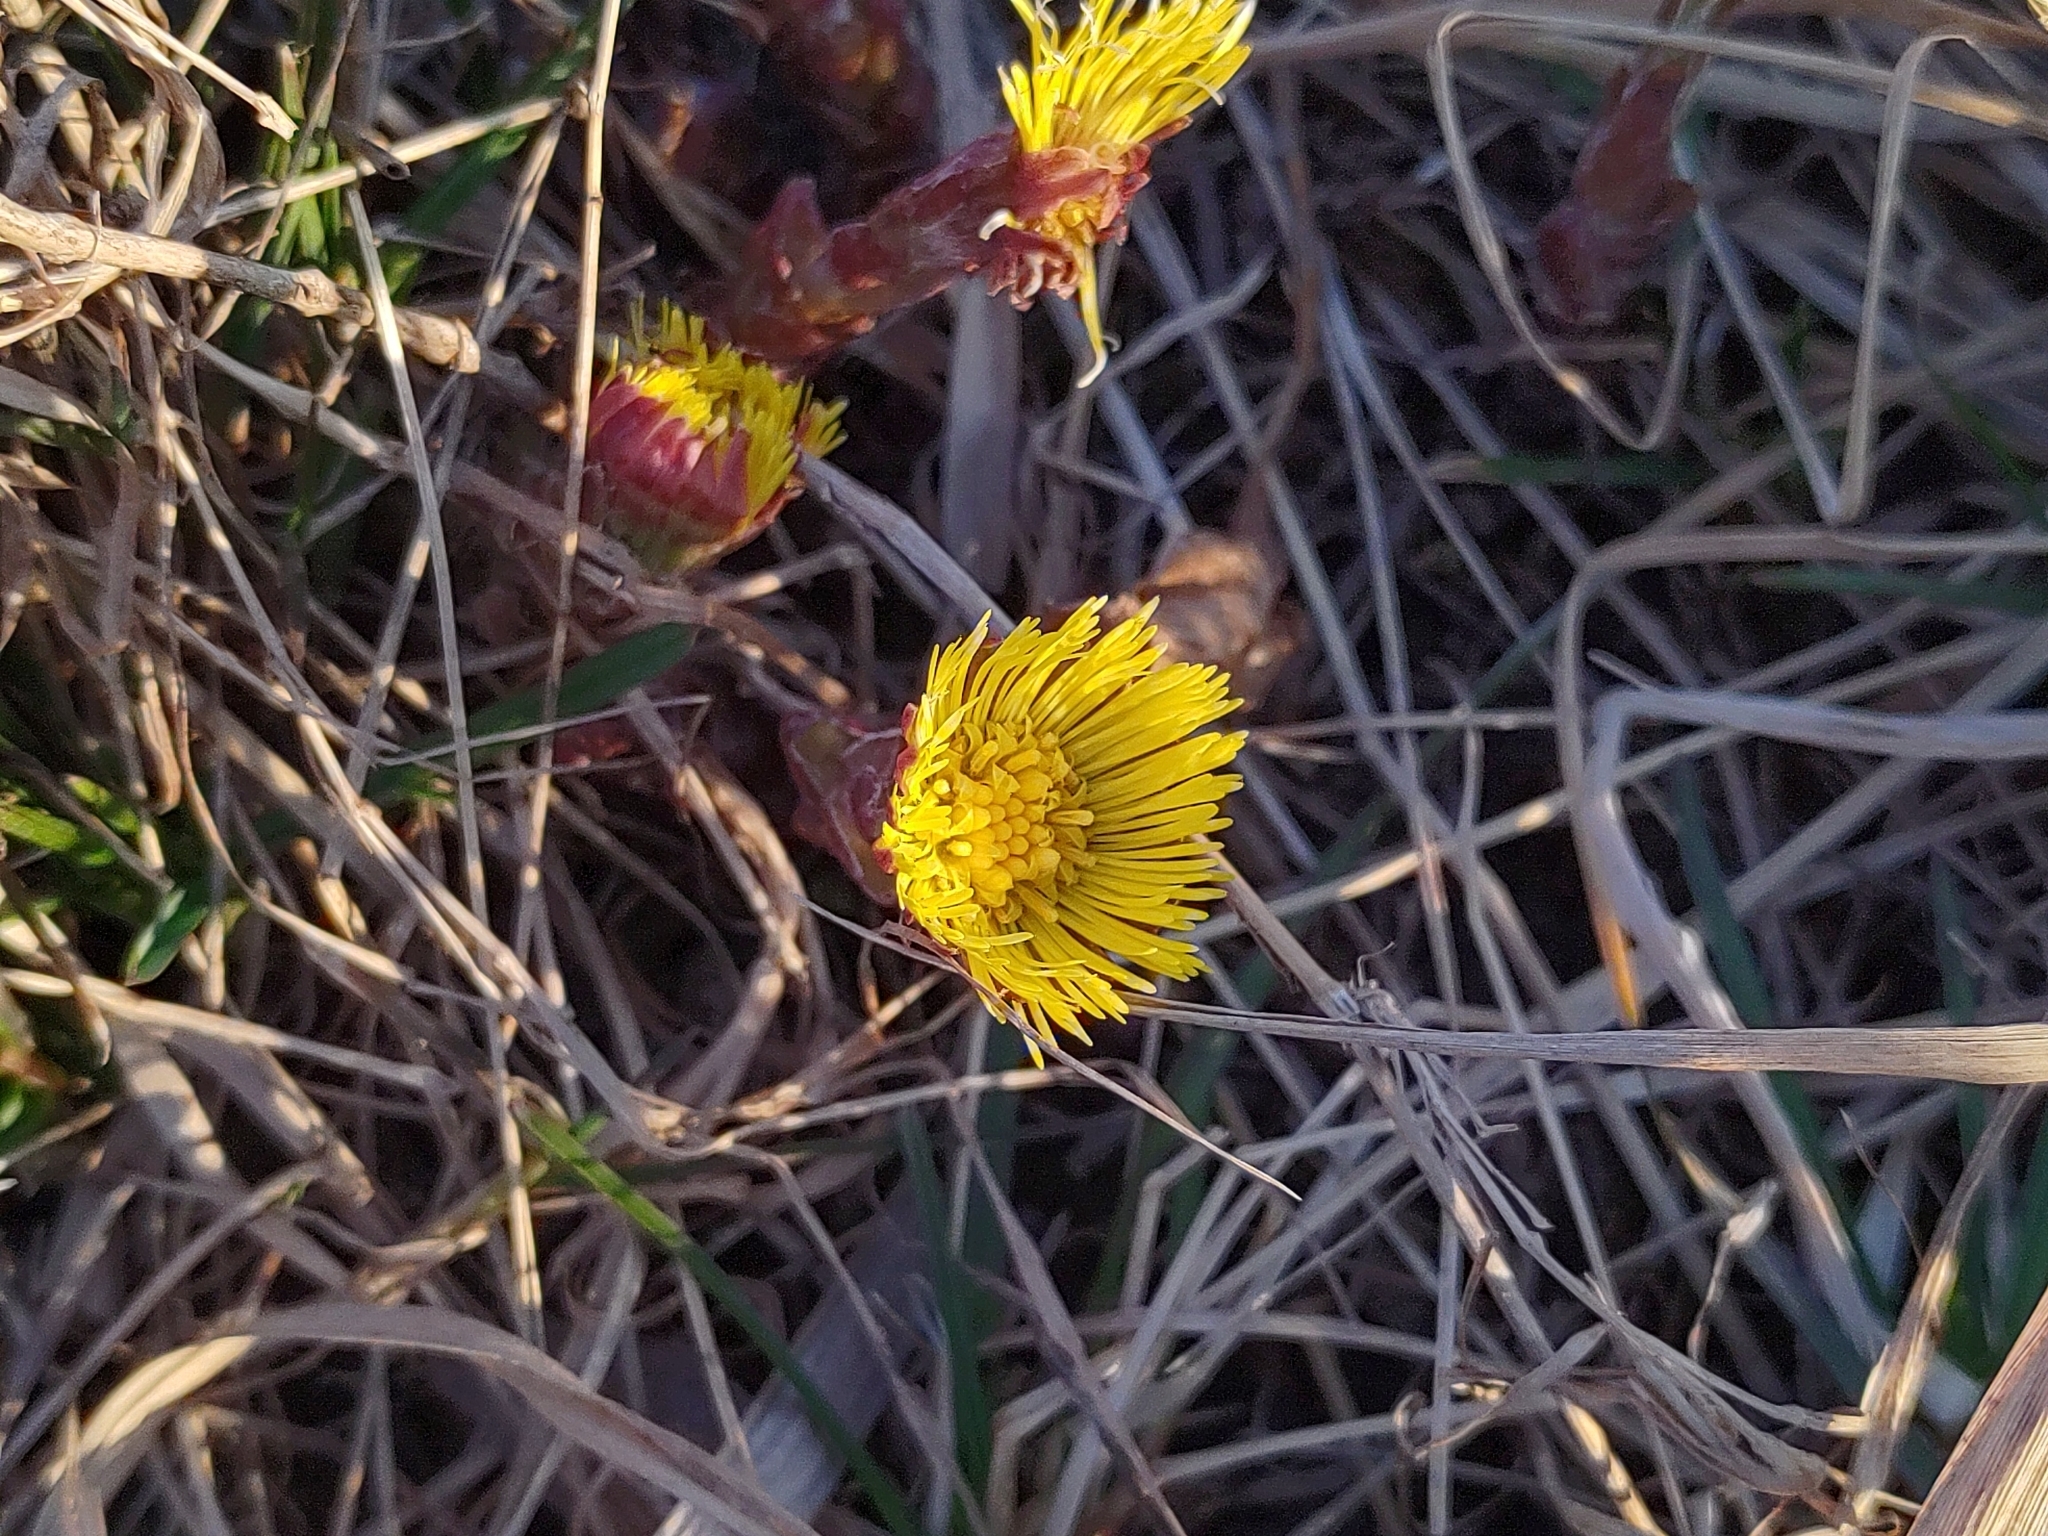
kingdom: Plantae
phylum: Tracheophyta
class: Magnoliopsida
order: Asterales
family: Asteraceae
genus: Tussilago
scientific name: Tussilago farfara
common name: Coltsfoot
